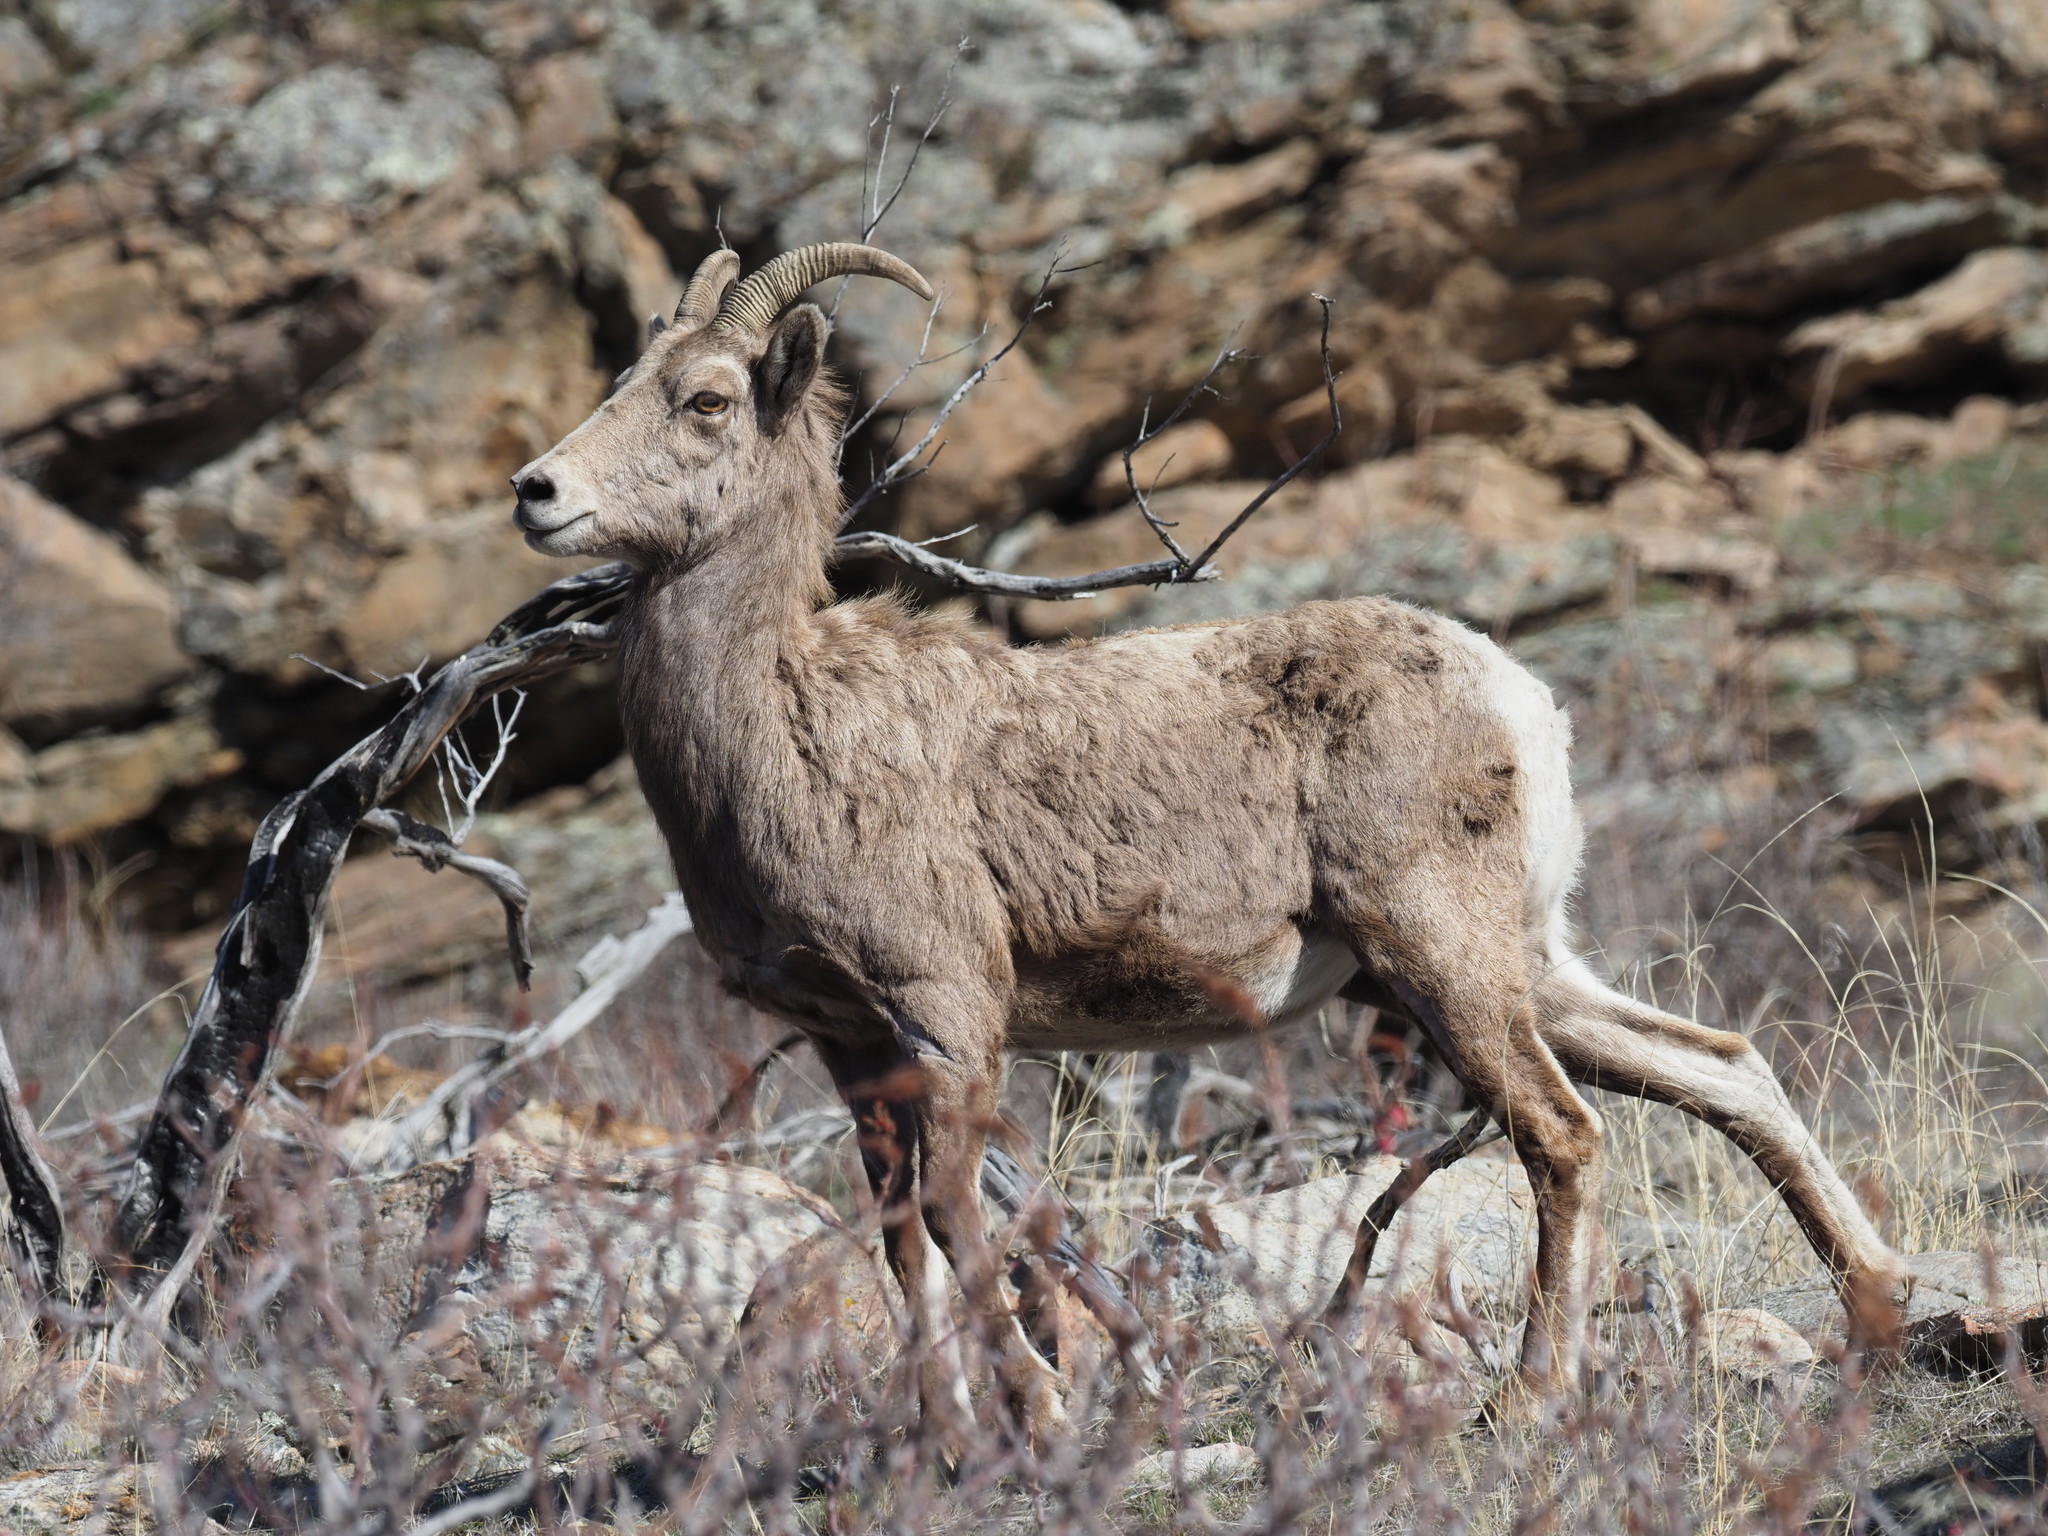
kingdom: Animalia
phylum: Chordata
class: Mammalia
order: Artiodactyla
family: Bovidae
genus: Ovis
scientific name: Ovis canadensis
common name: Bighorn sheep
